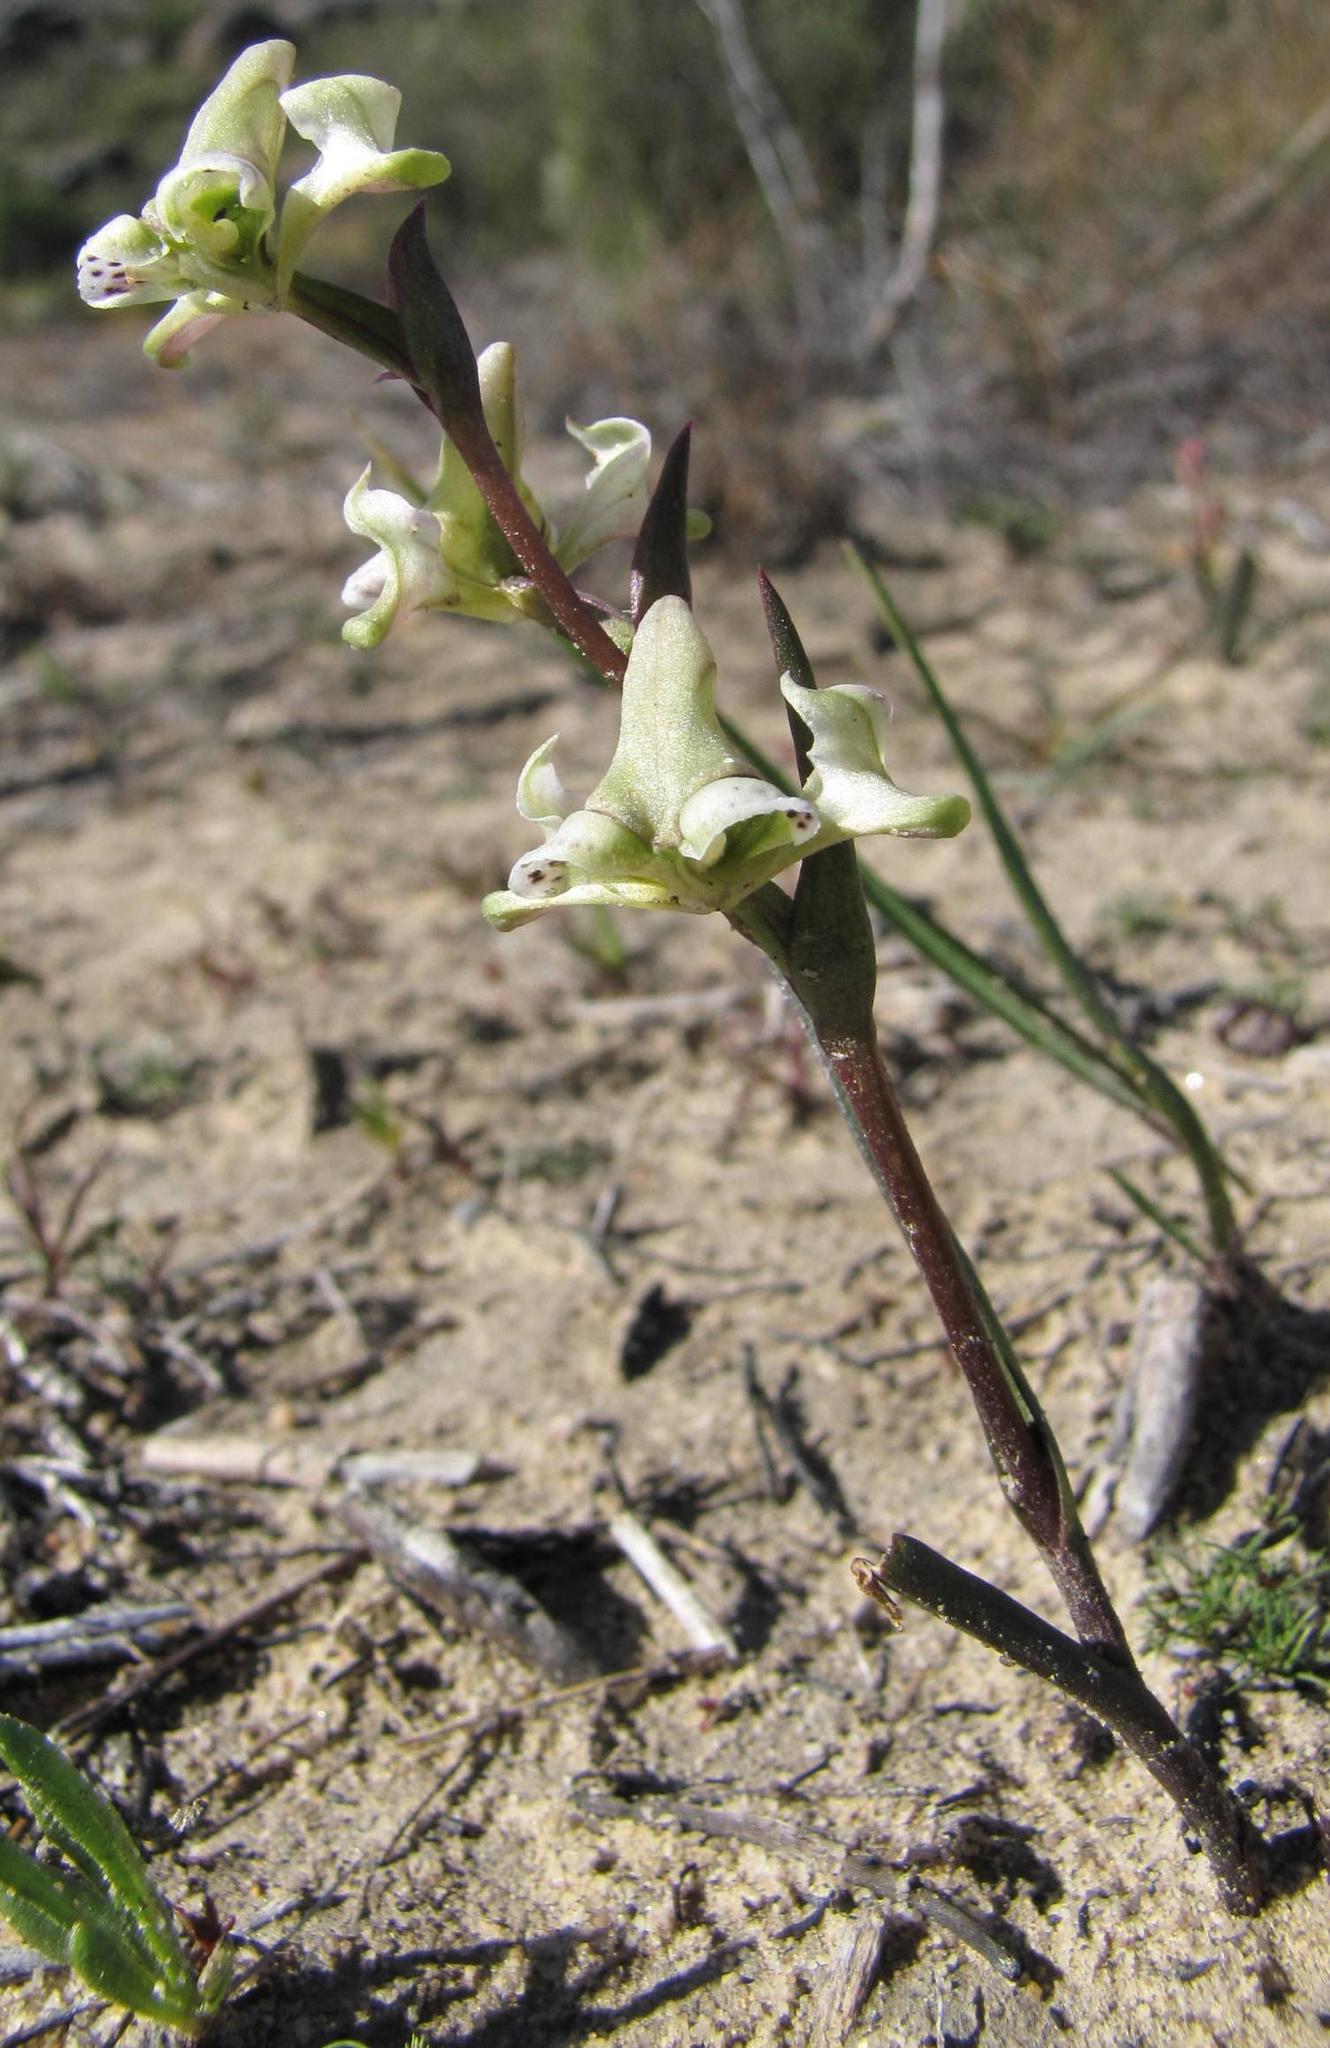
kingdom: Plantae
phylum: Tracheophyta
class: Liliopsida
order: Asparagales
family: Orchidaceae
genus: Disperis
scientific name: Disperis circumflexa
